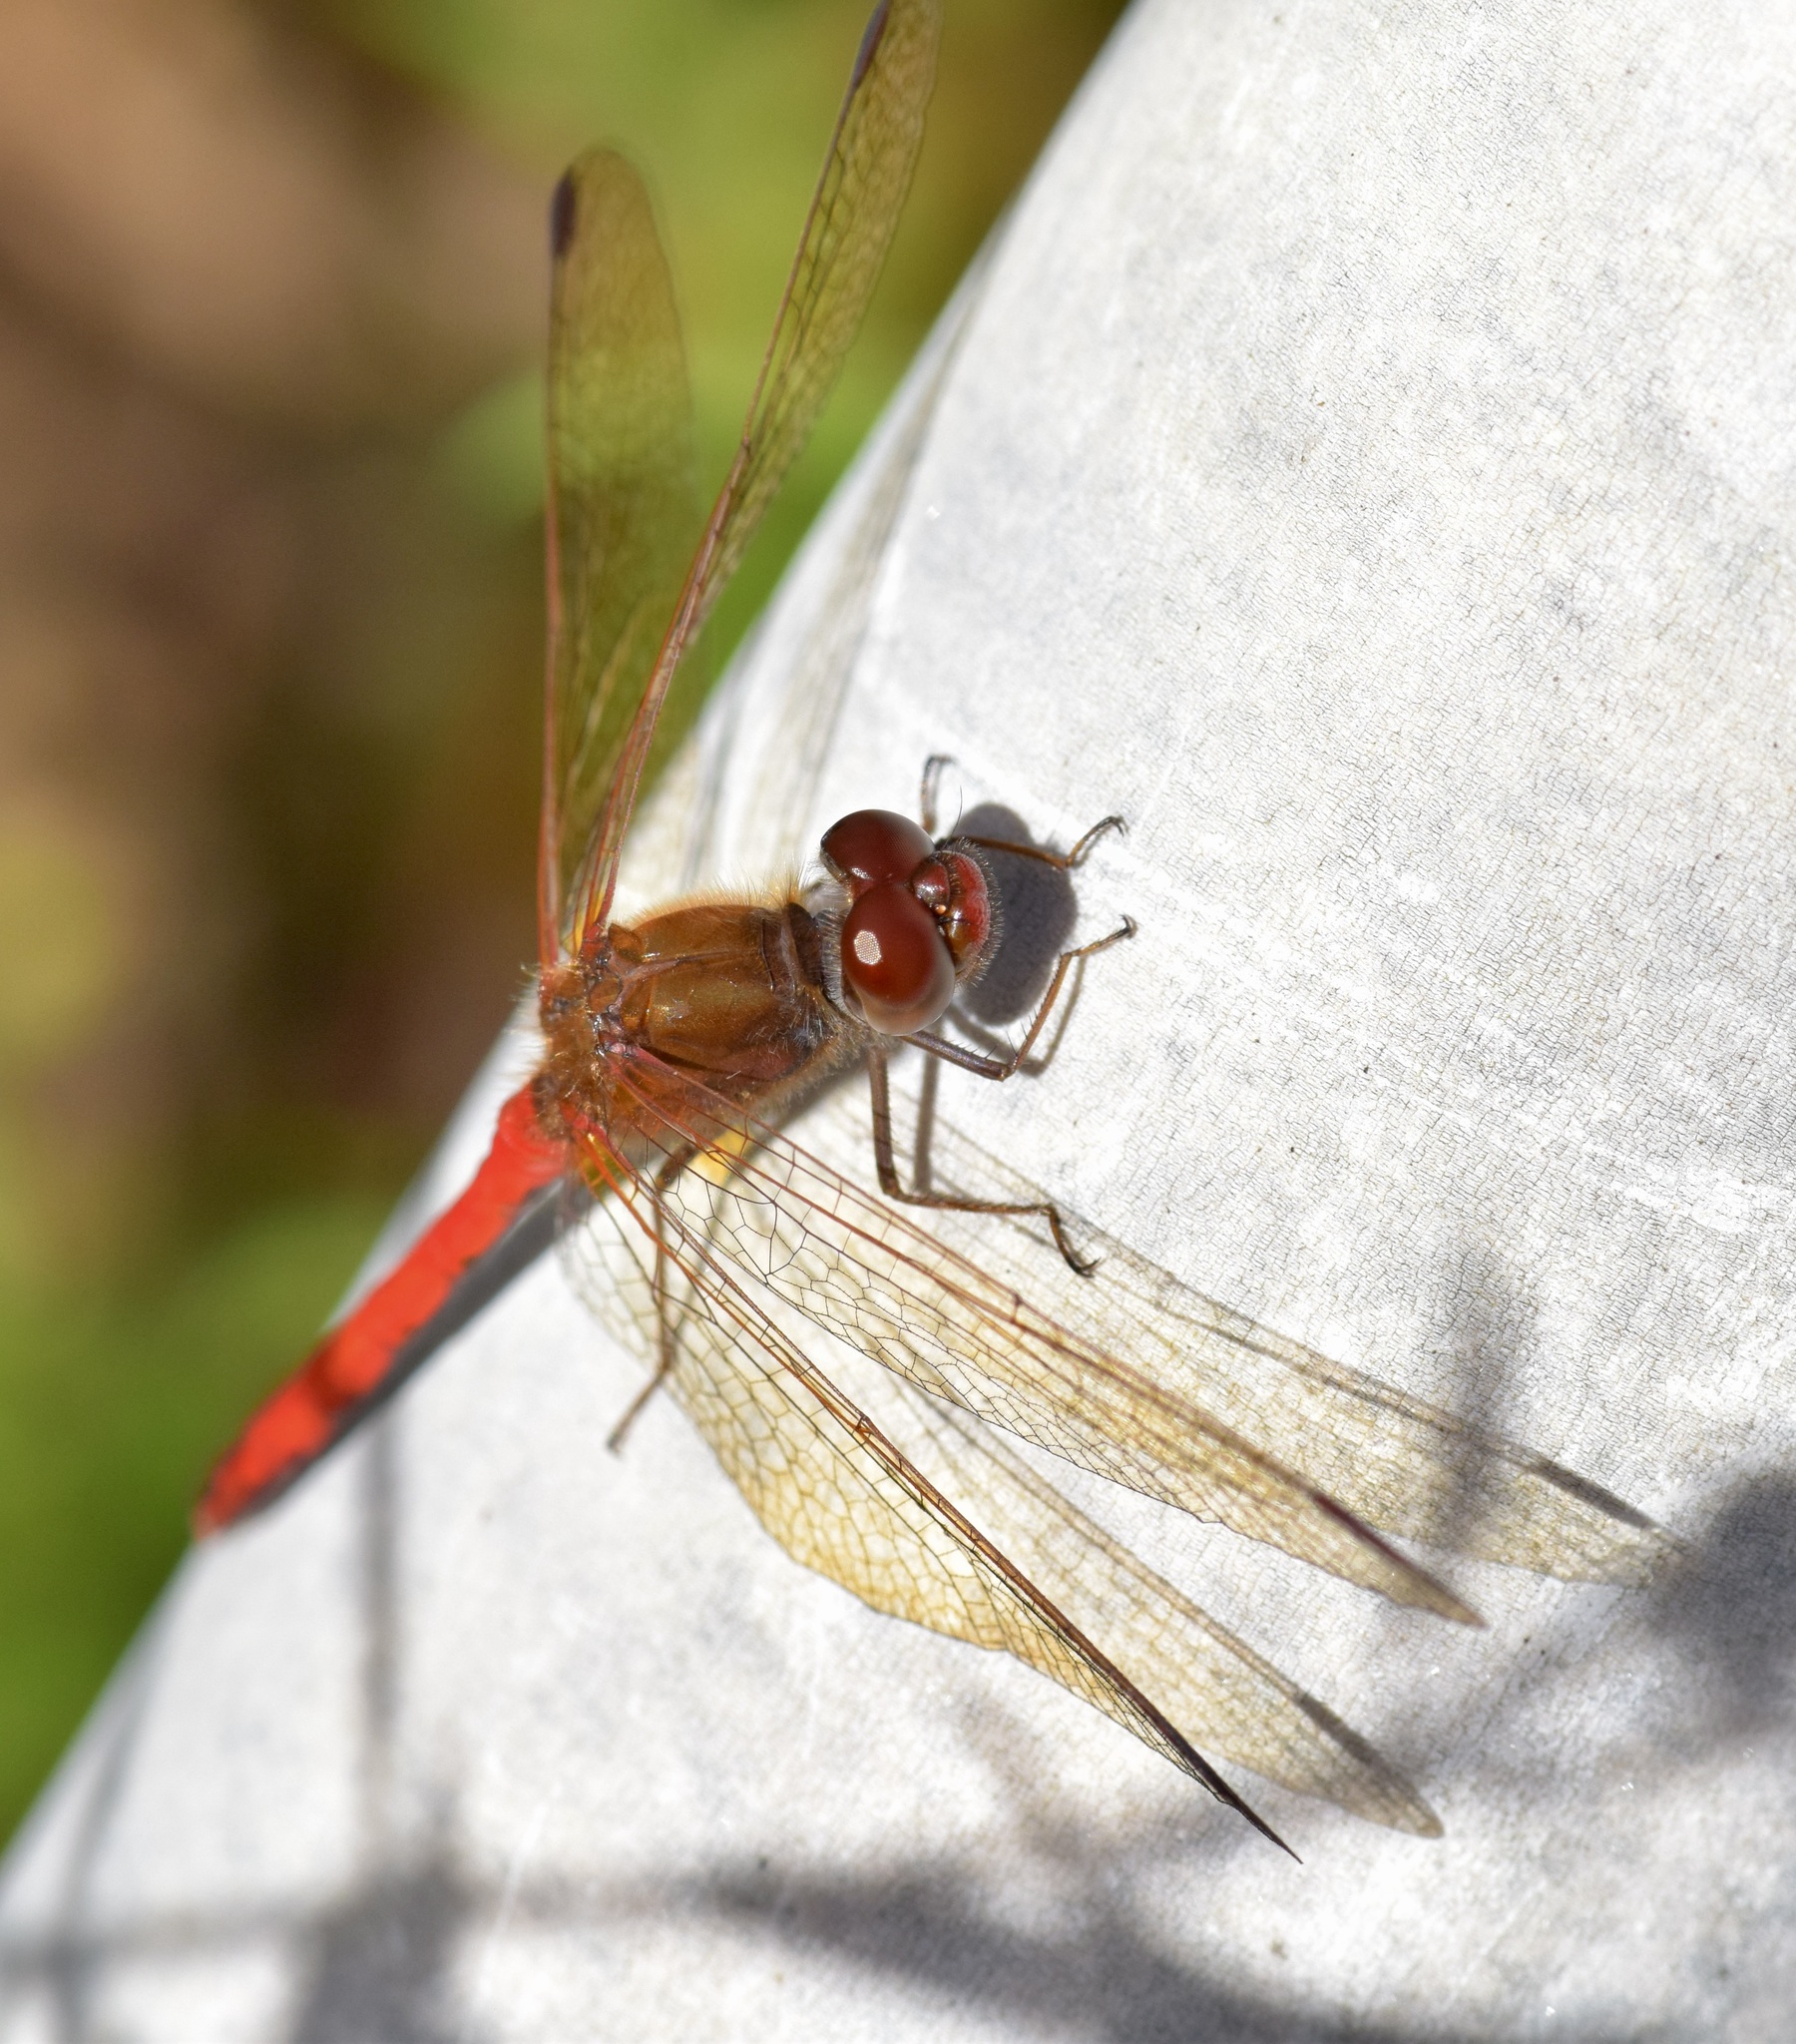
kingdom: Animalia
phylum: Arthropoda
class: Insecta
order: Odonata
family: Libellulidae
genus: Sympetrum
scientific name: Sympetrum vicinum
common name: Autumn meadowhawk
